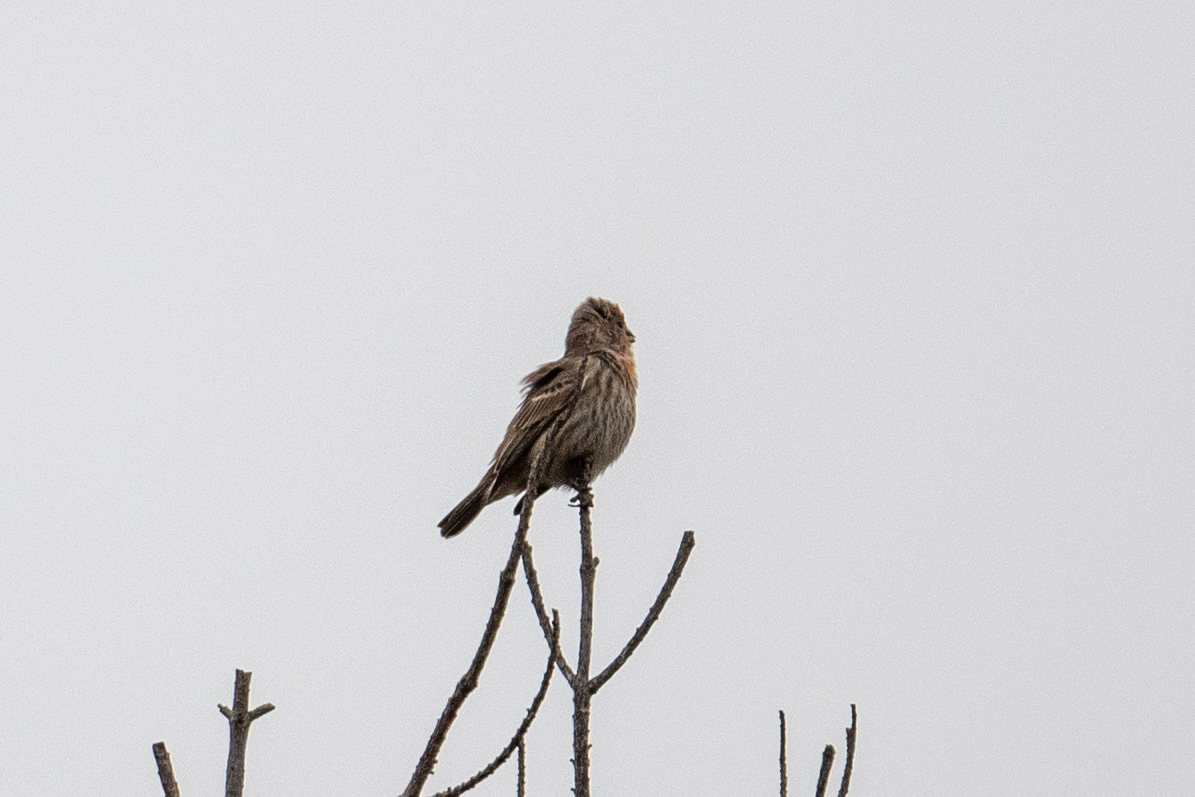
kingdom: Animalia
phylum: Chordata
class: Aves
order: Passeriformes
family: Fringillidae
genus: Haemorhous
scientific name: Haemorhous mexicanus
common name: House finch
